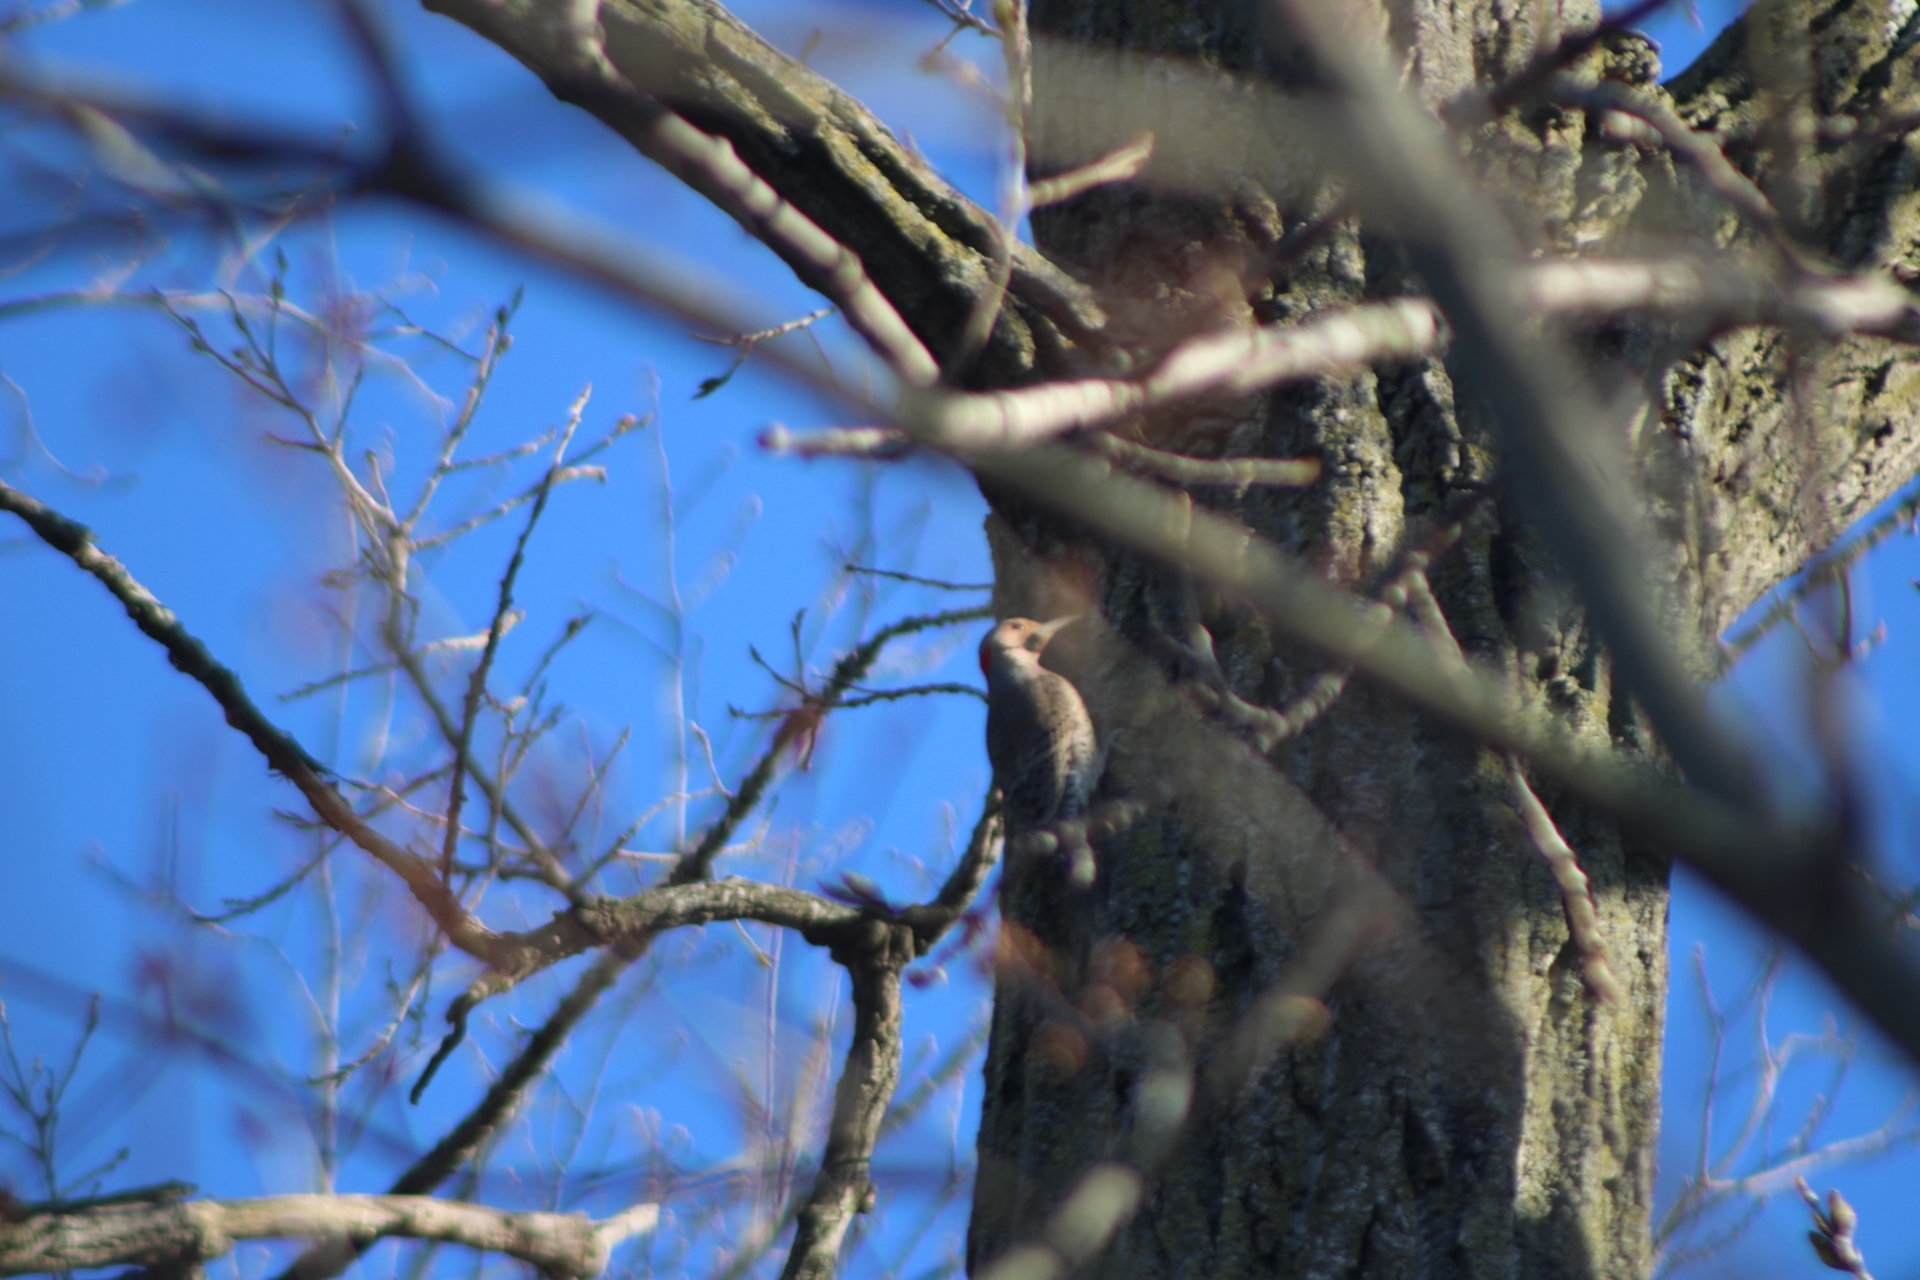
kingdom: Animalia
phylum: Chordata
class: Aves
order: Piciformes
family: Picidae
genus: Colaptes
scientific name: Colaptes auratus
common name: Northern flicker
